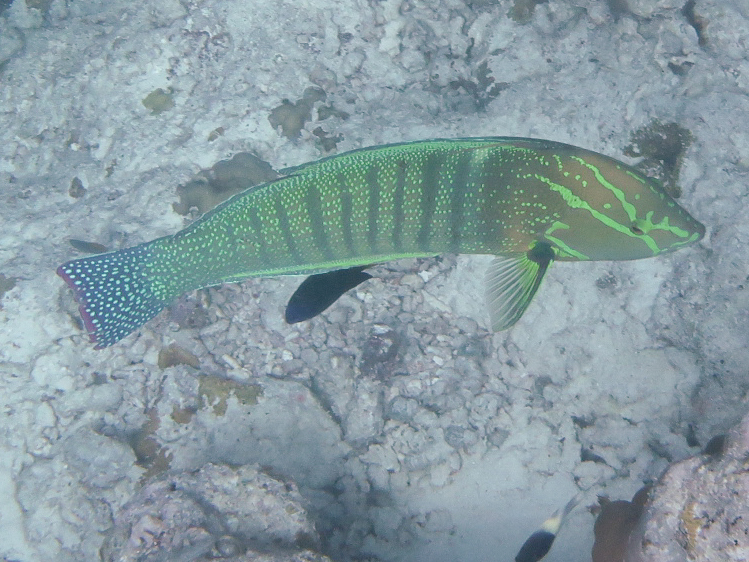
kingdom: Animalia
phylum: Chordata
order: Perciformes
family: Labridae
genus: Coris
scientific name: Coris formosa
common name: Queen coris
